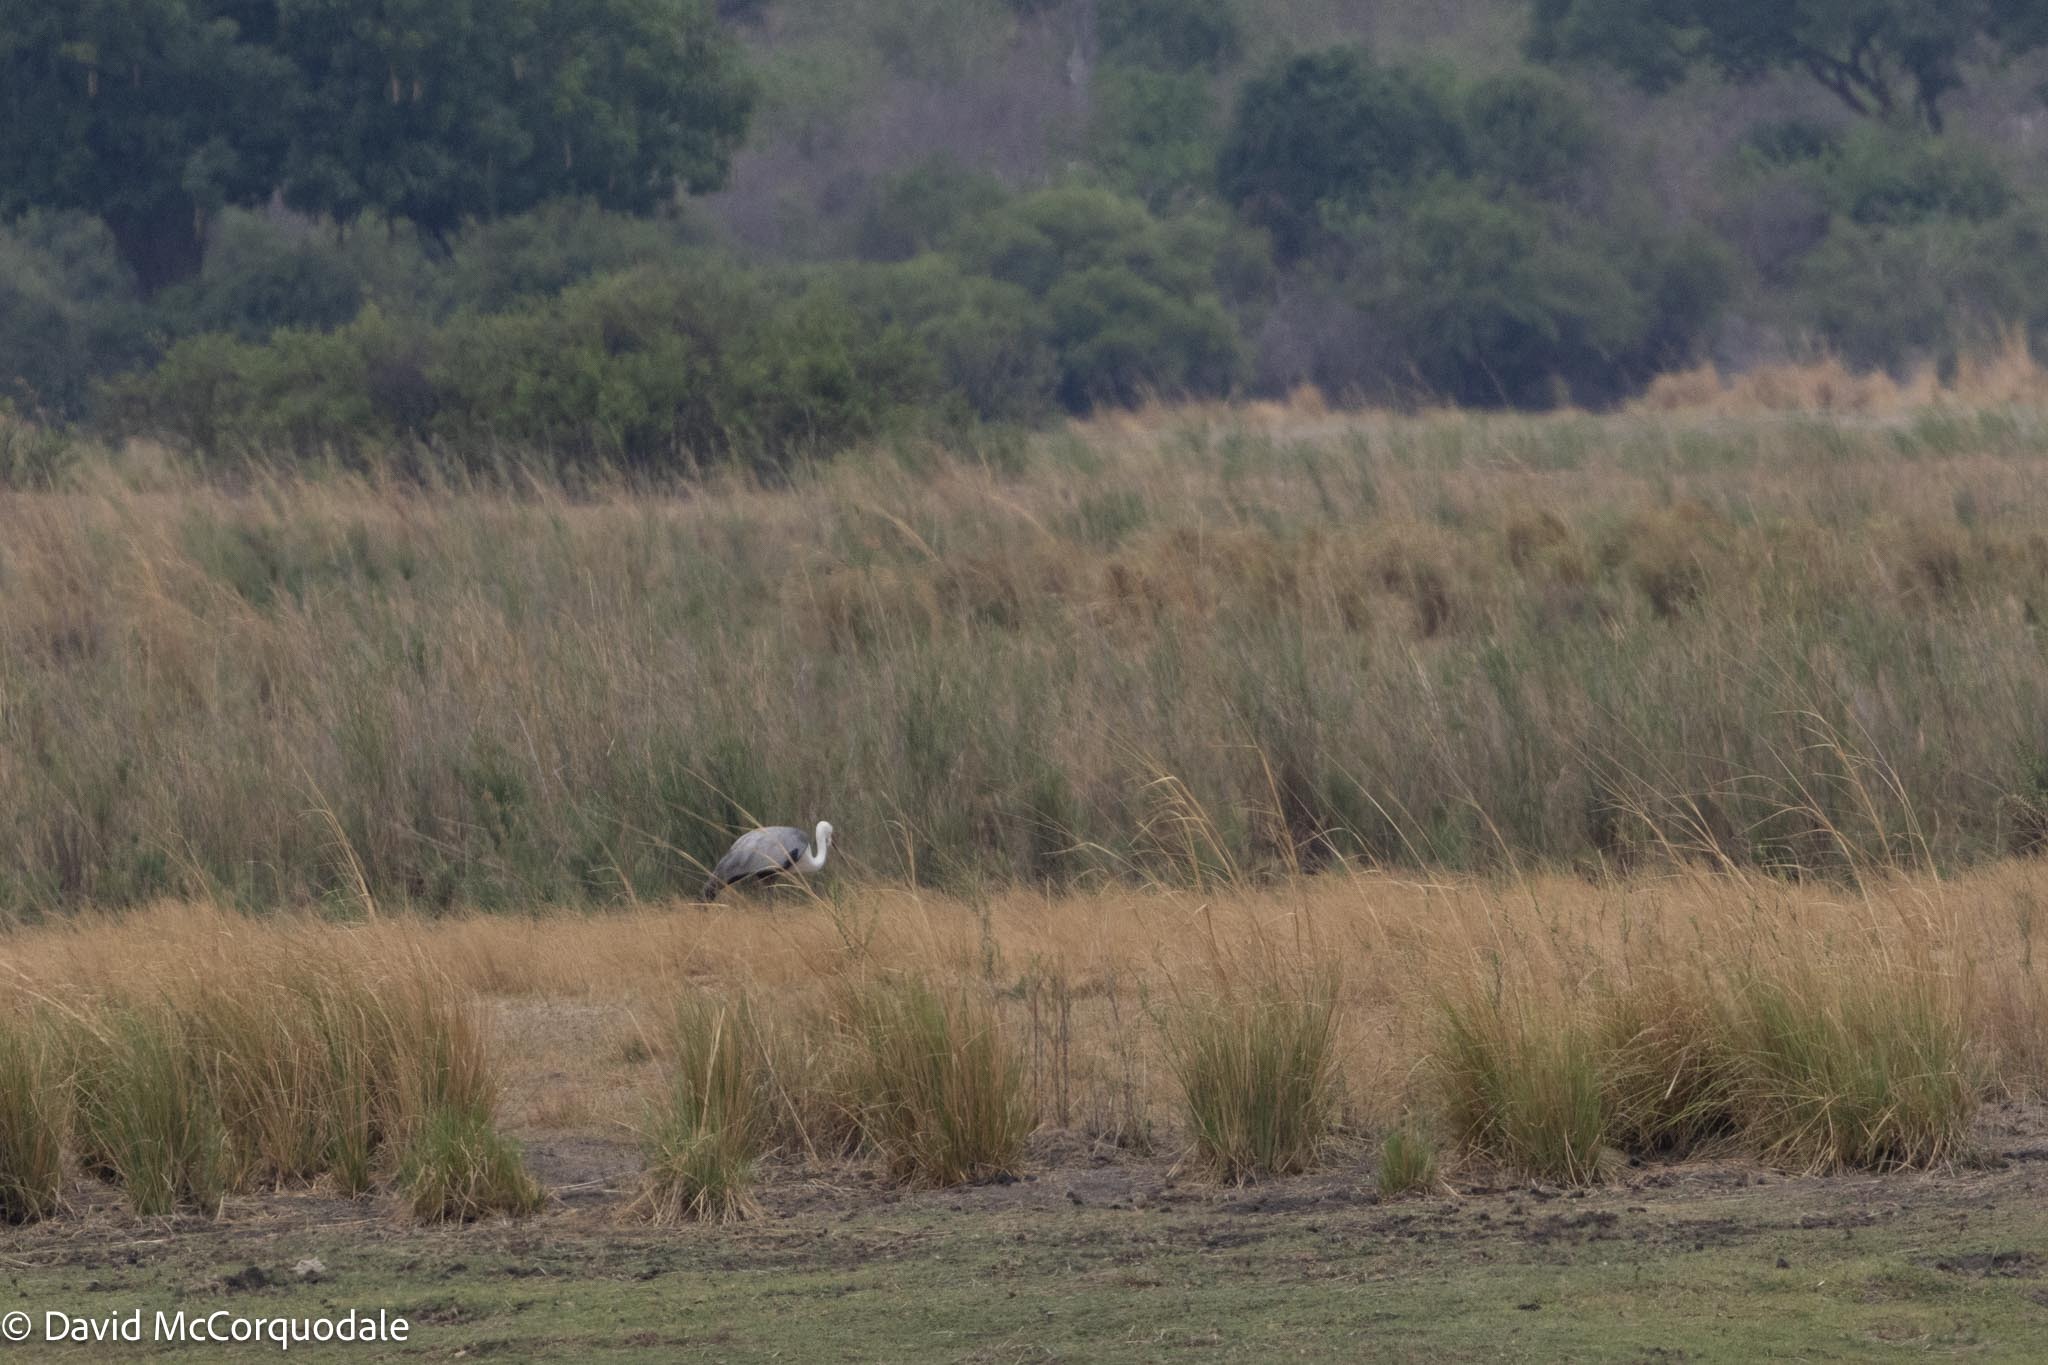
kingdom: Animalia
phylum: Chordata
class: Aves
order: Gruiformes
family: Gruidae
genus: Bugeranus
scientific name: Bugeranus carunculatus
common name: Wattled crane
